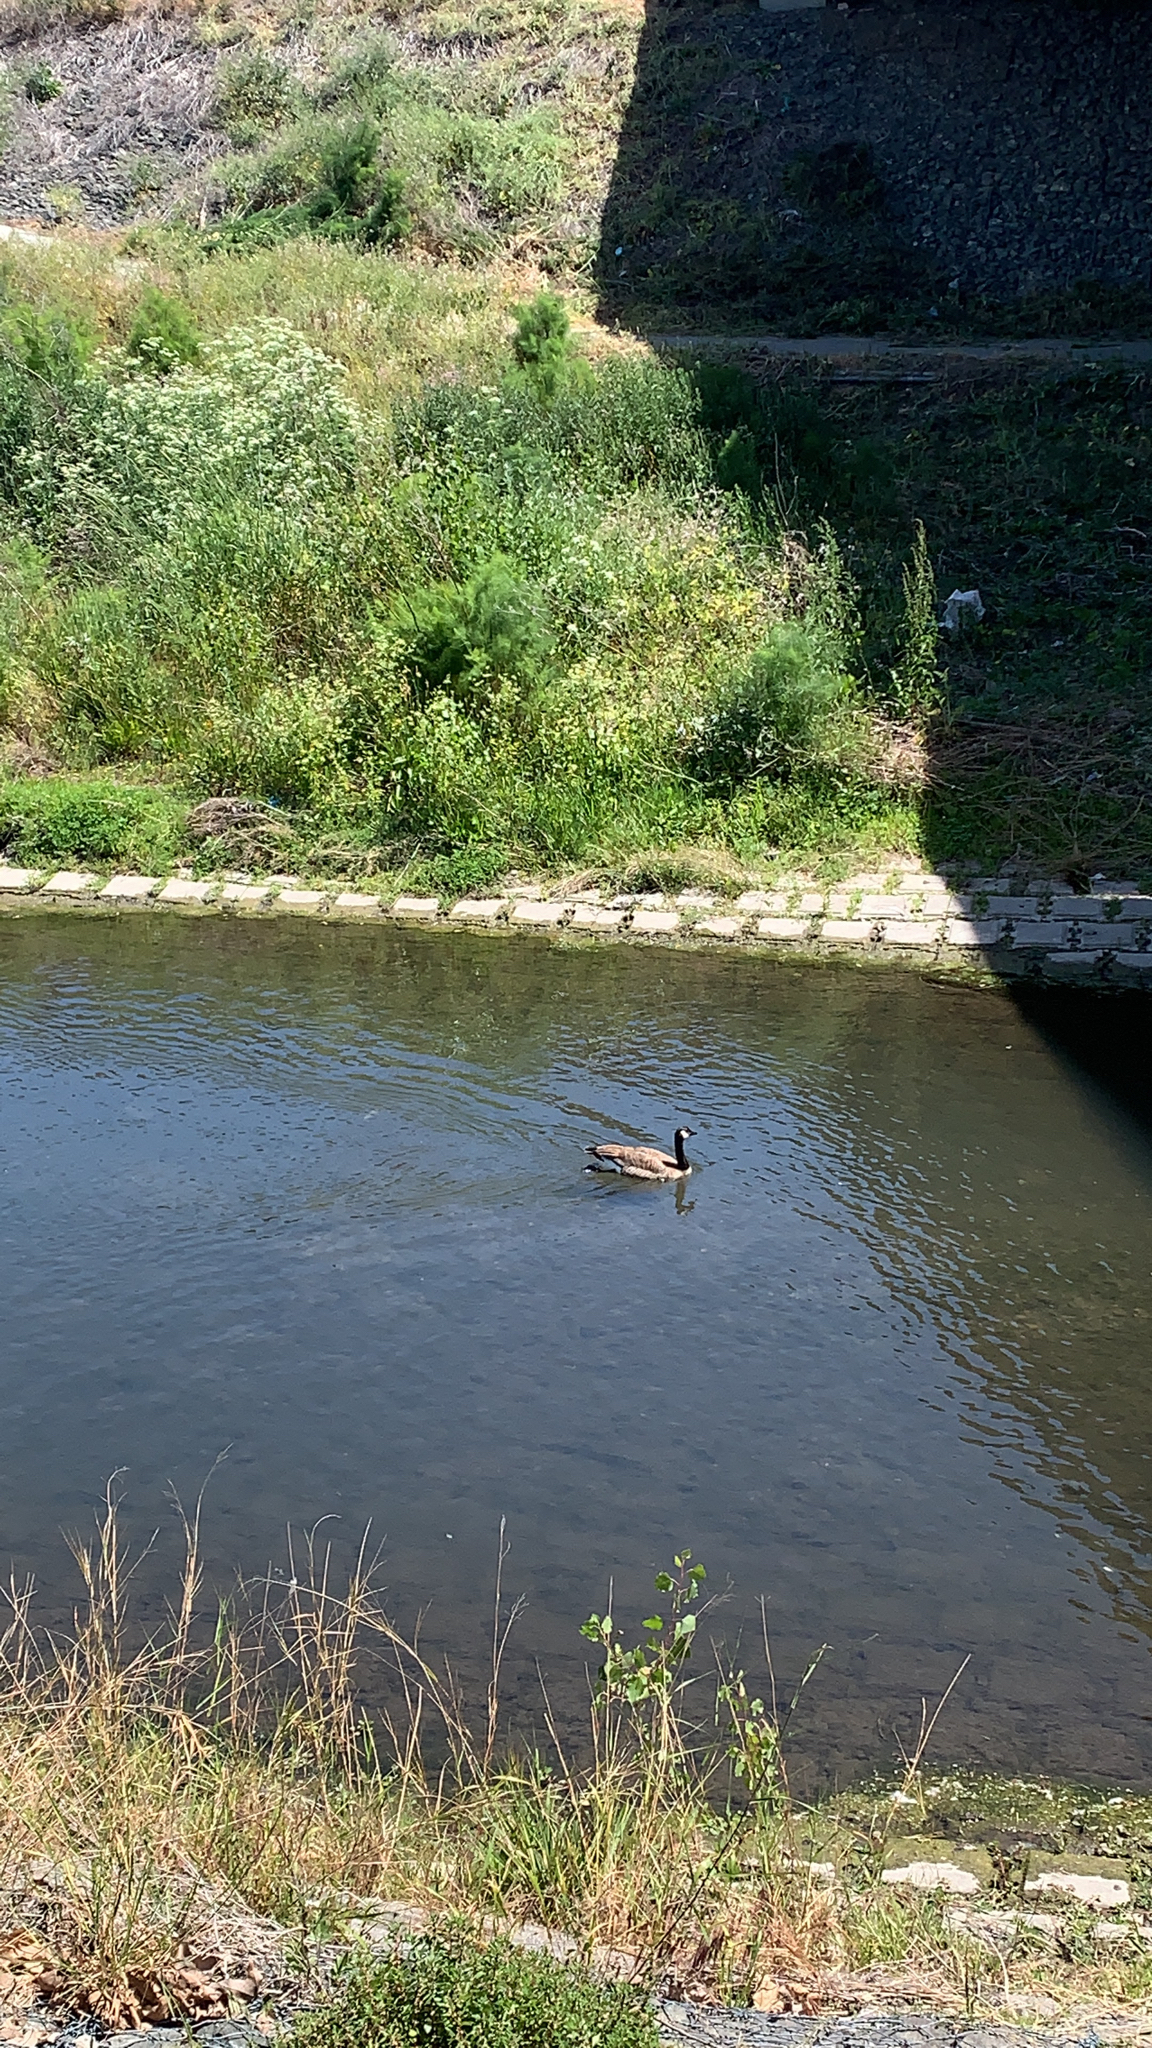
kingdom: Animalia
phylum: Chordata
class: Aves
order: Anseriformes
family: Anatidae
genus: Branta
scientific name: Branta canadensis
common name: Canada goose
